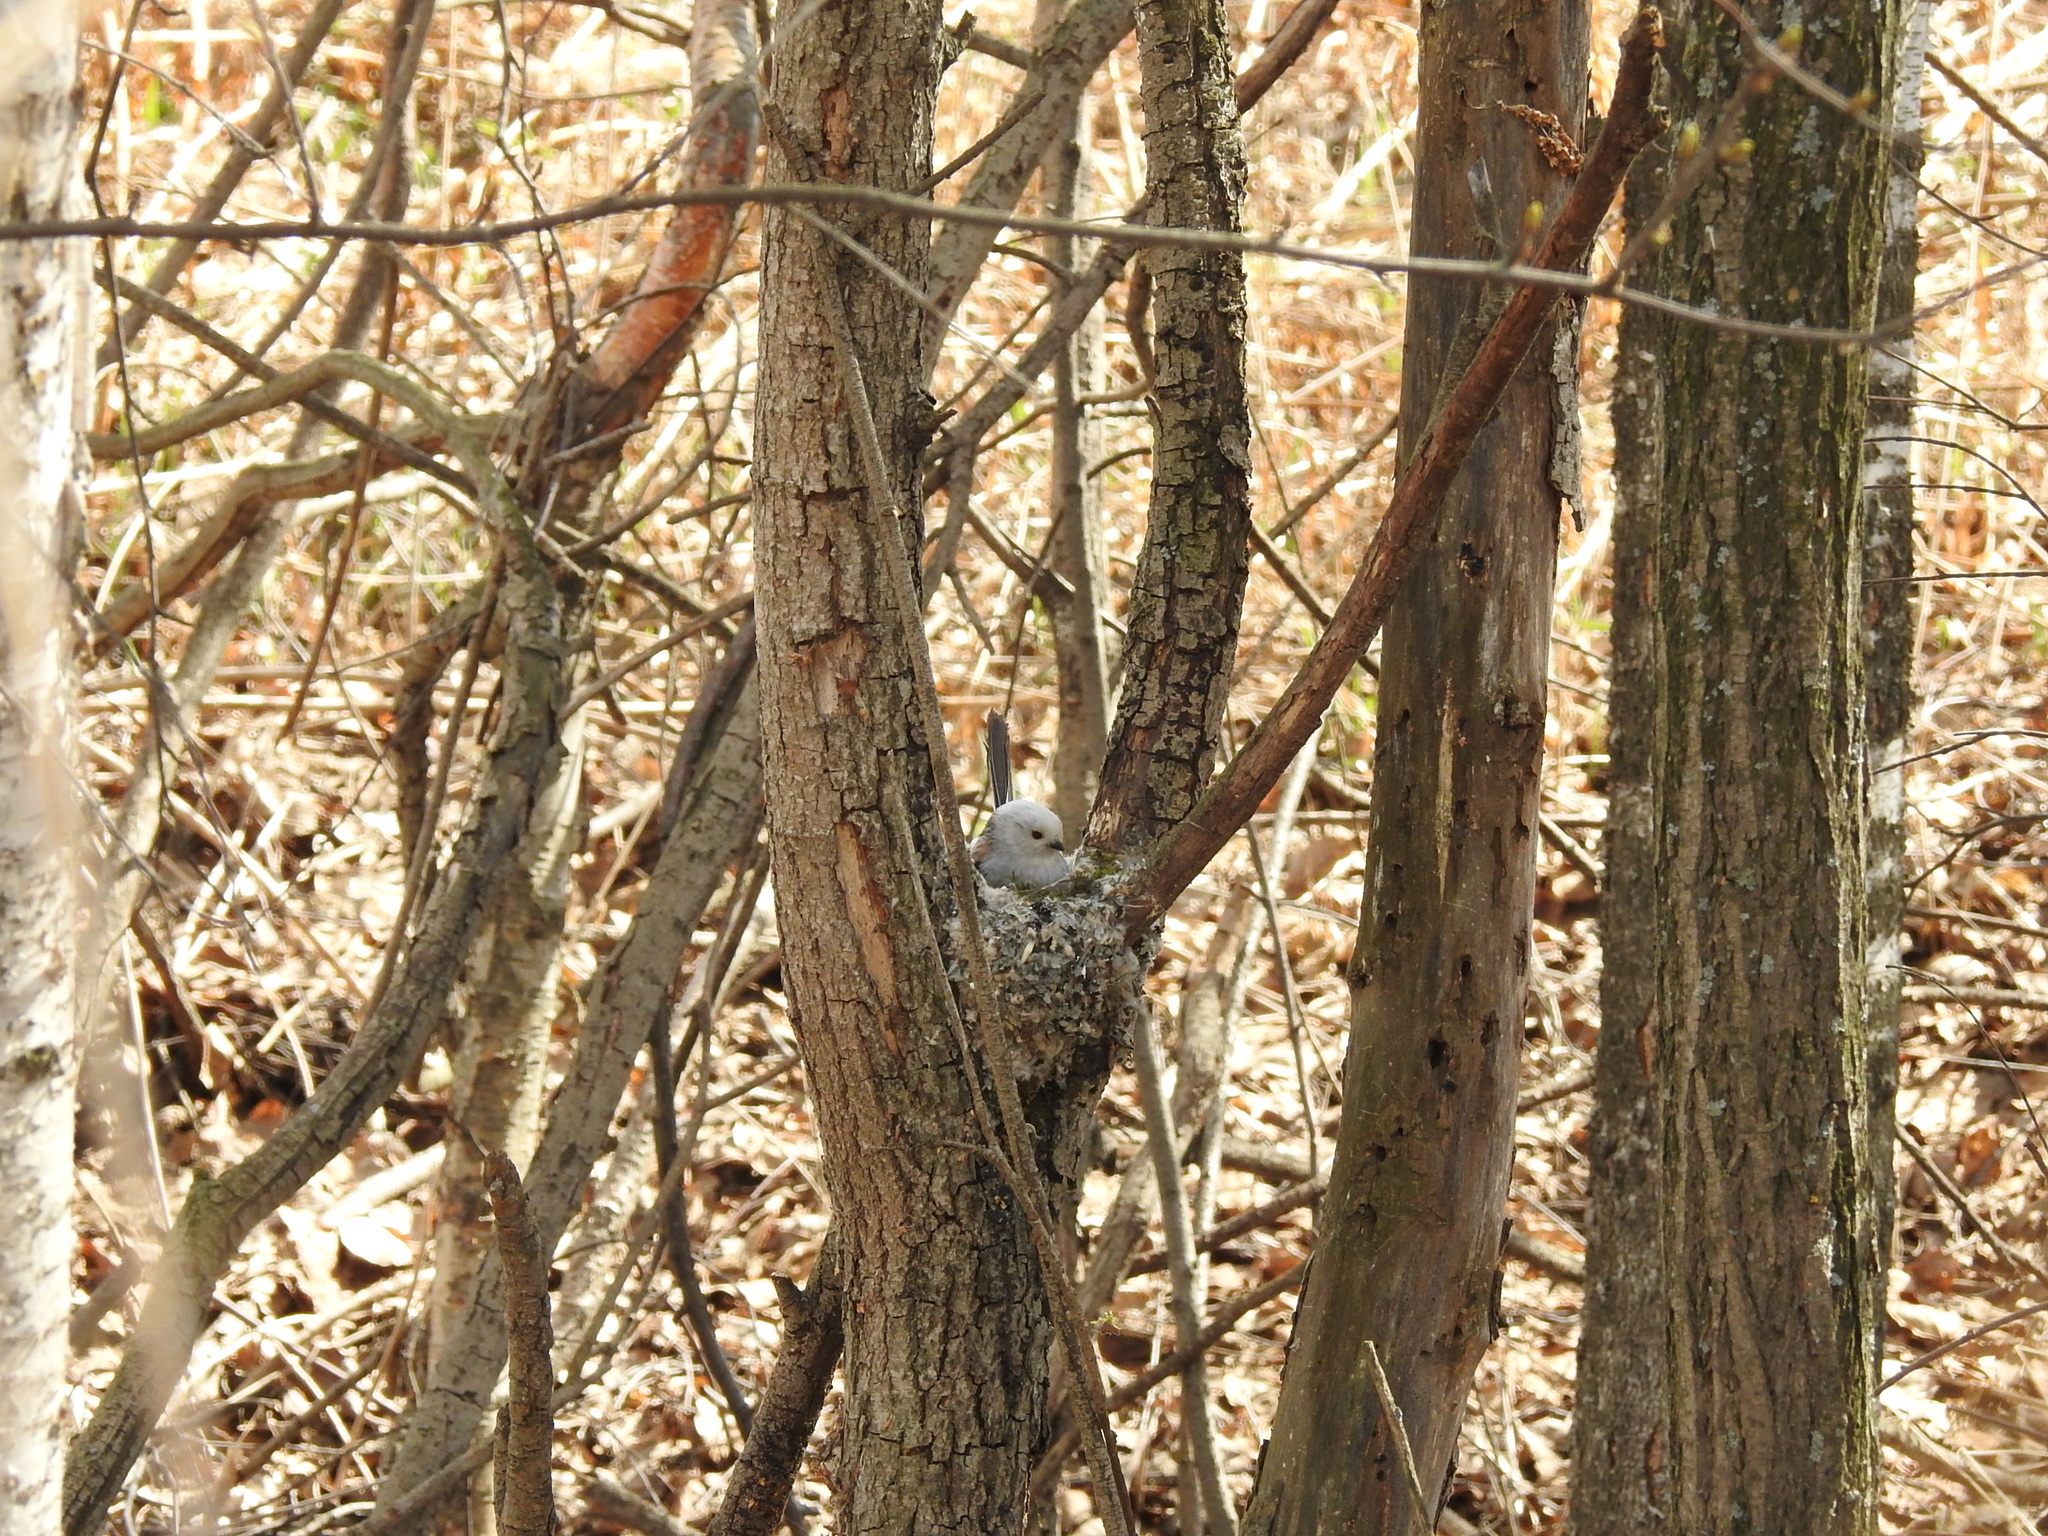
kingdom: Animalia
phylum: Chordata
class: Aves
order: Passeriformes
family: Aegithalidae
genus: Aegithalos
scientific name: Aegithalos caudatus
